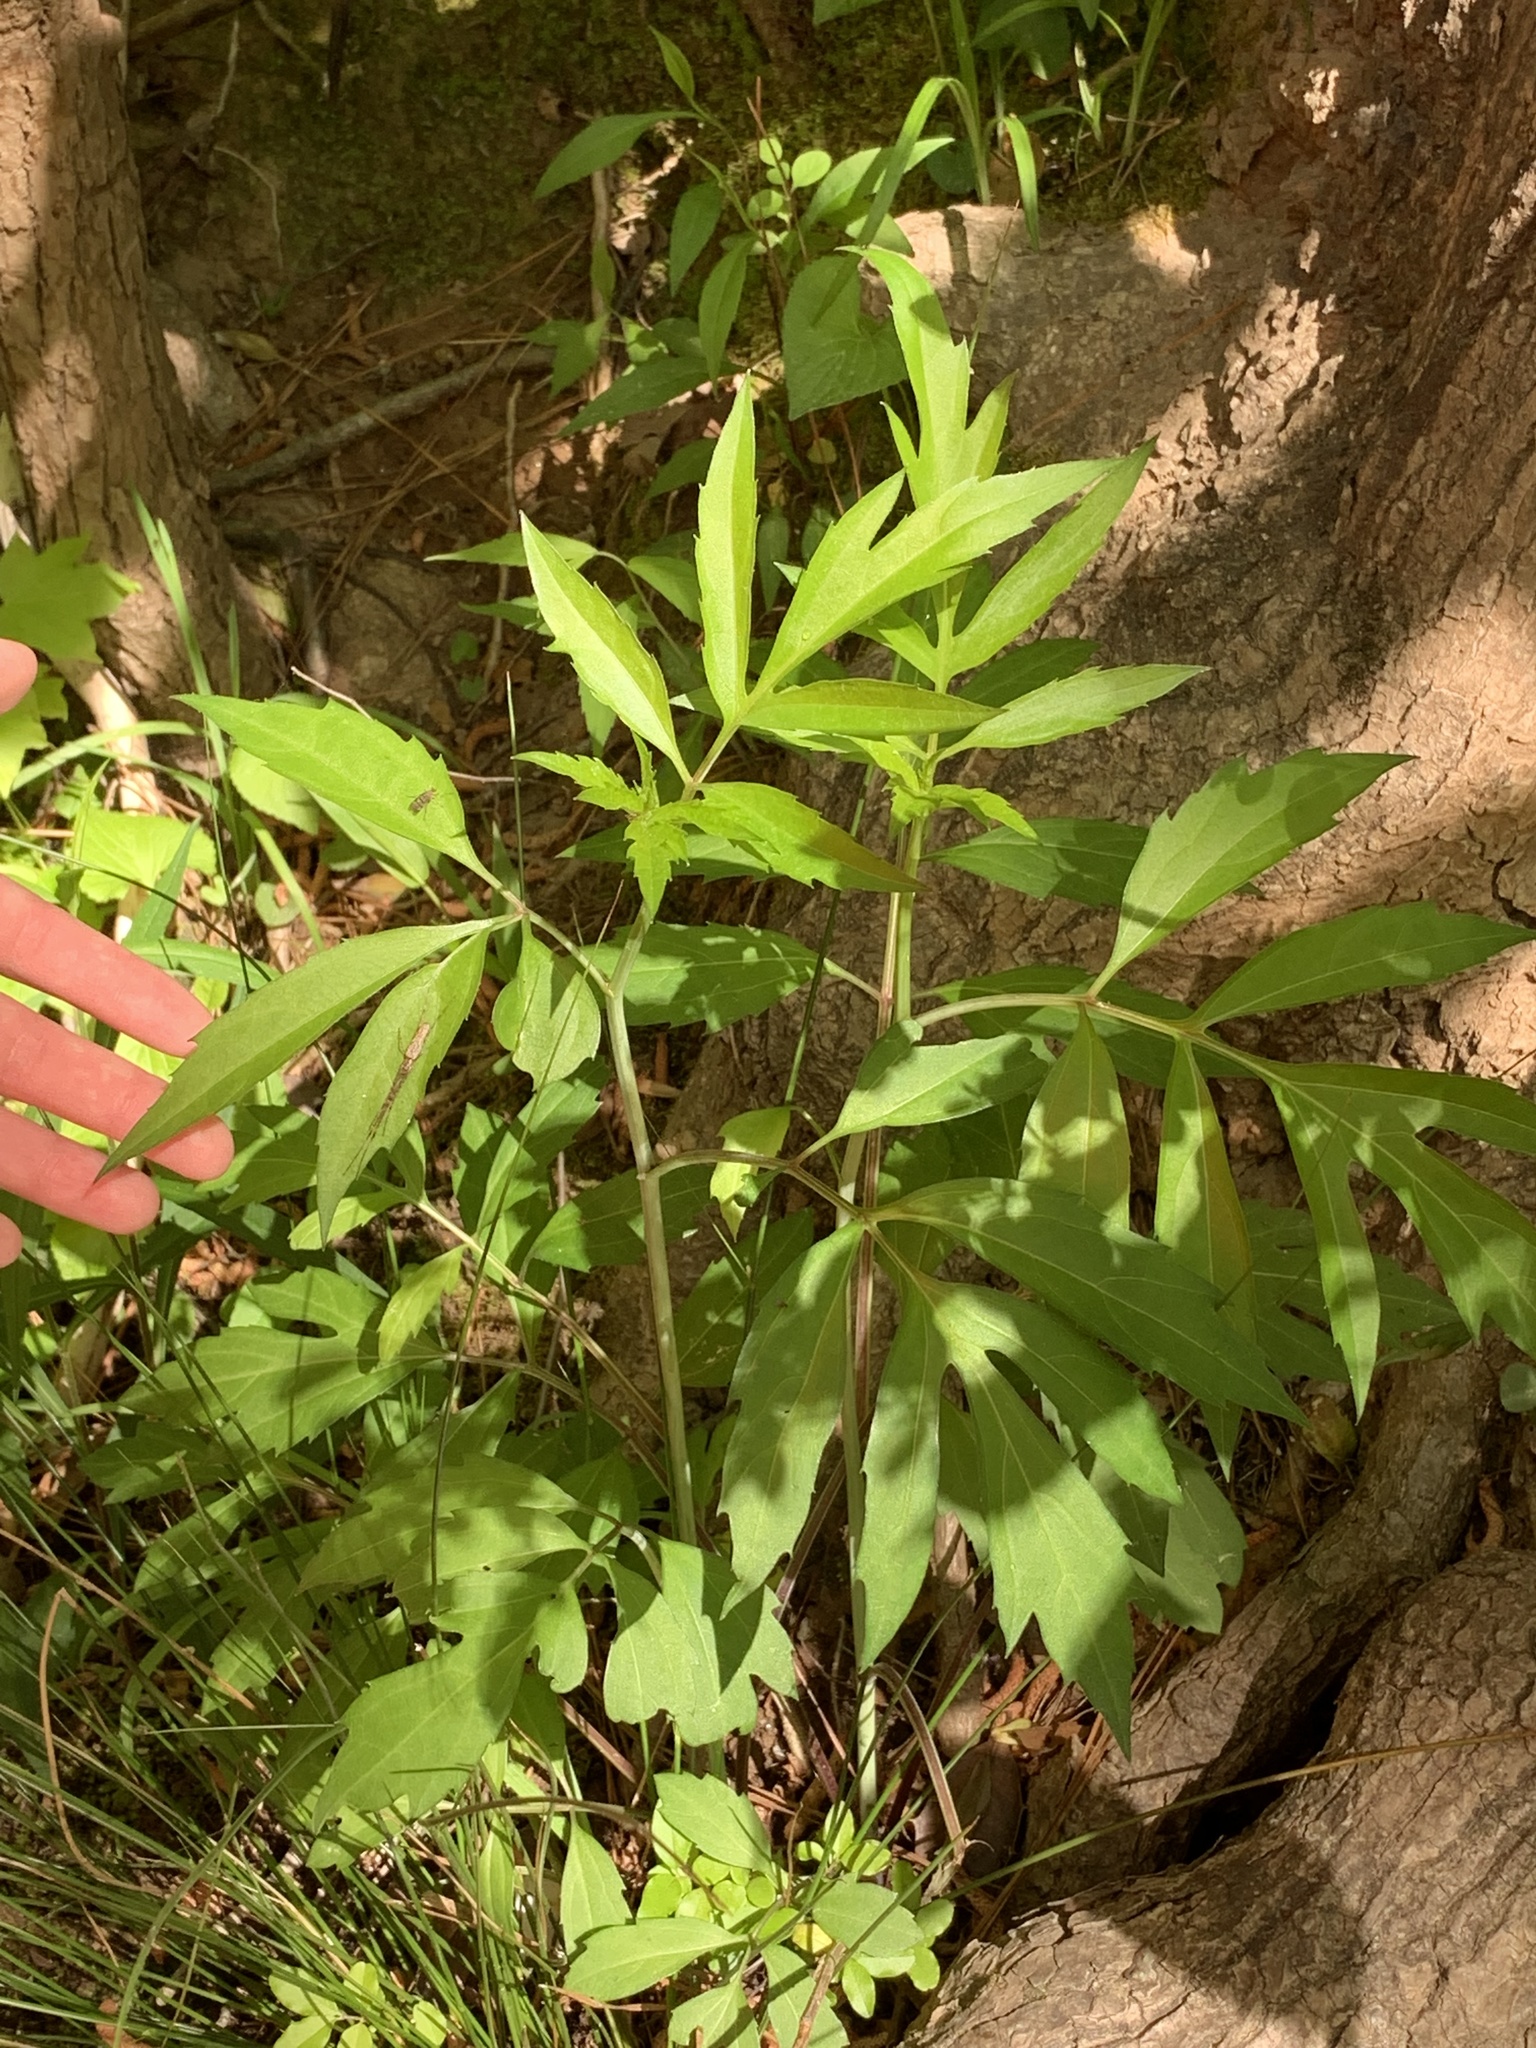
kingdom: Plantae
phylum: Tracheophyta
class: Magnoliopsida
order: Asterales
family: Asteraceae
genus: Rudbeckia
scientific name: Rudbeckia laciniata
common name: Coneflower
